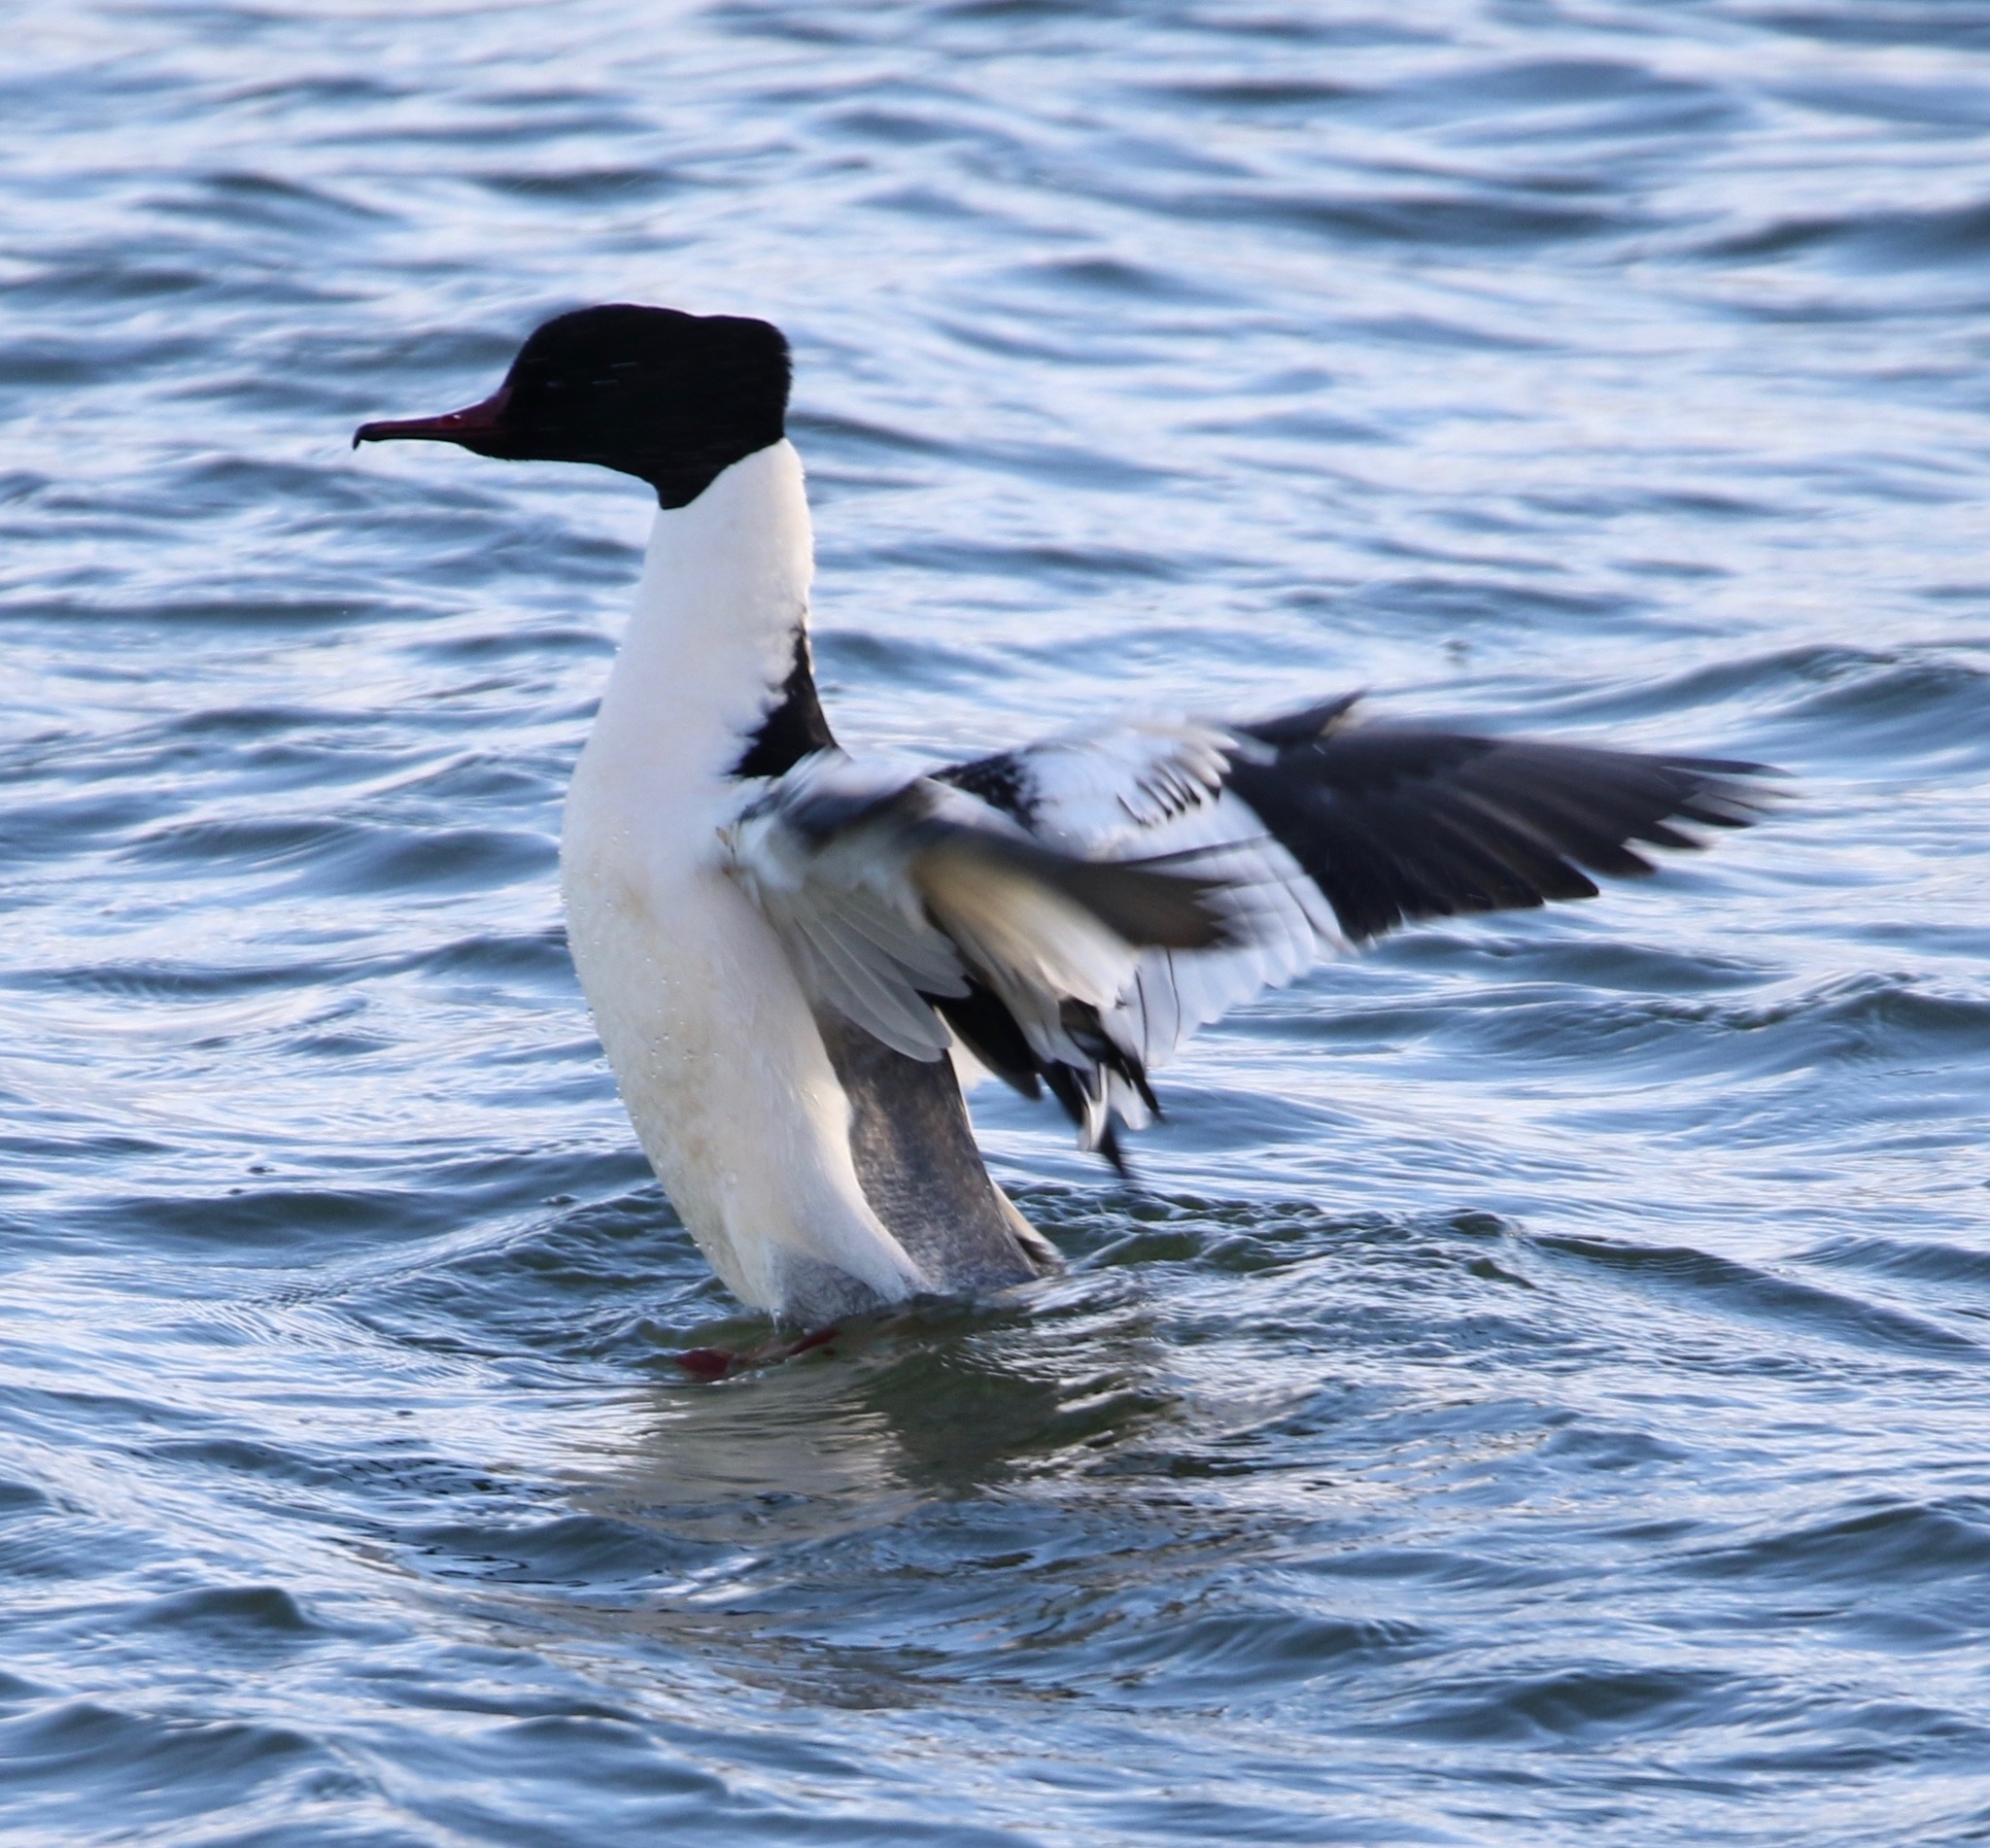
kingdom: Animalia
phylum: Chordata
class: Aves
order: Anseriformes
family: Anatidae
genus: Mergus
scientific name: Mergus merganser
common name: Common merganser
